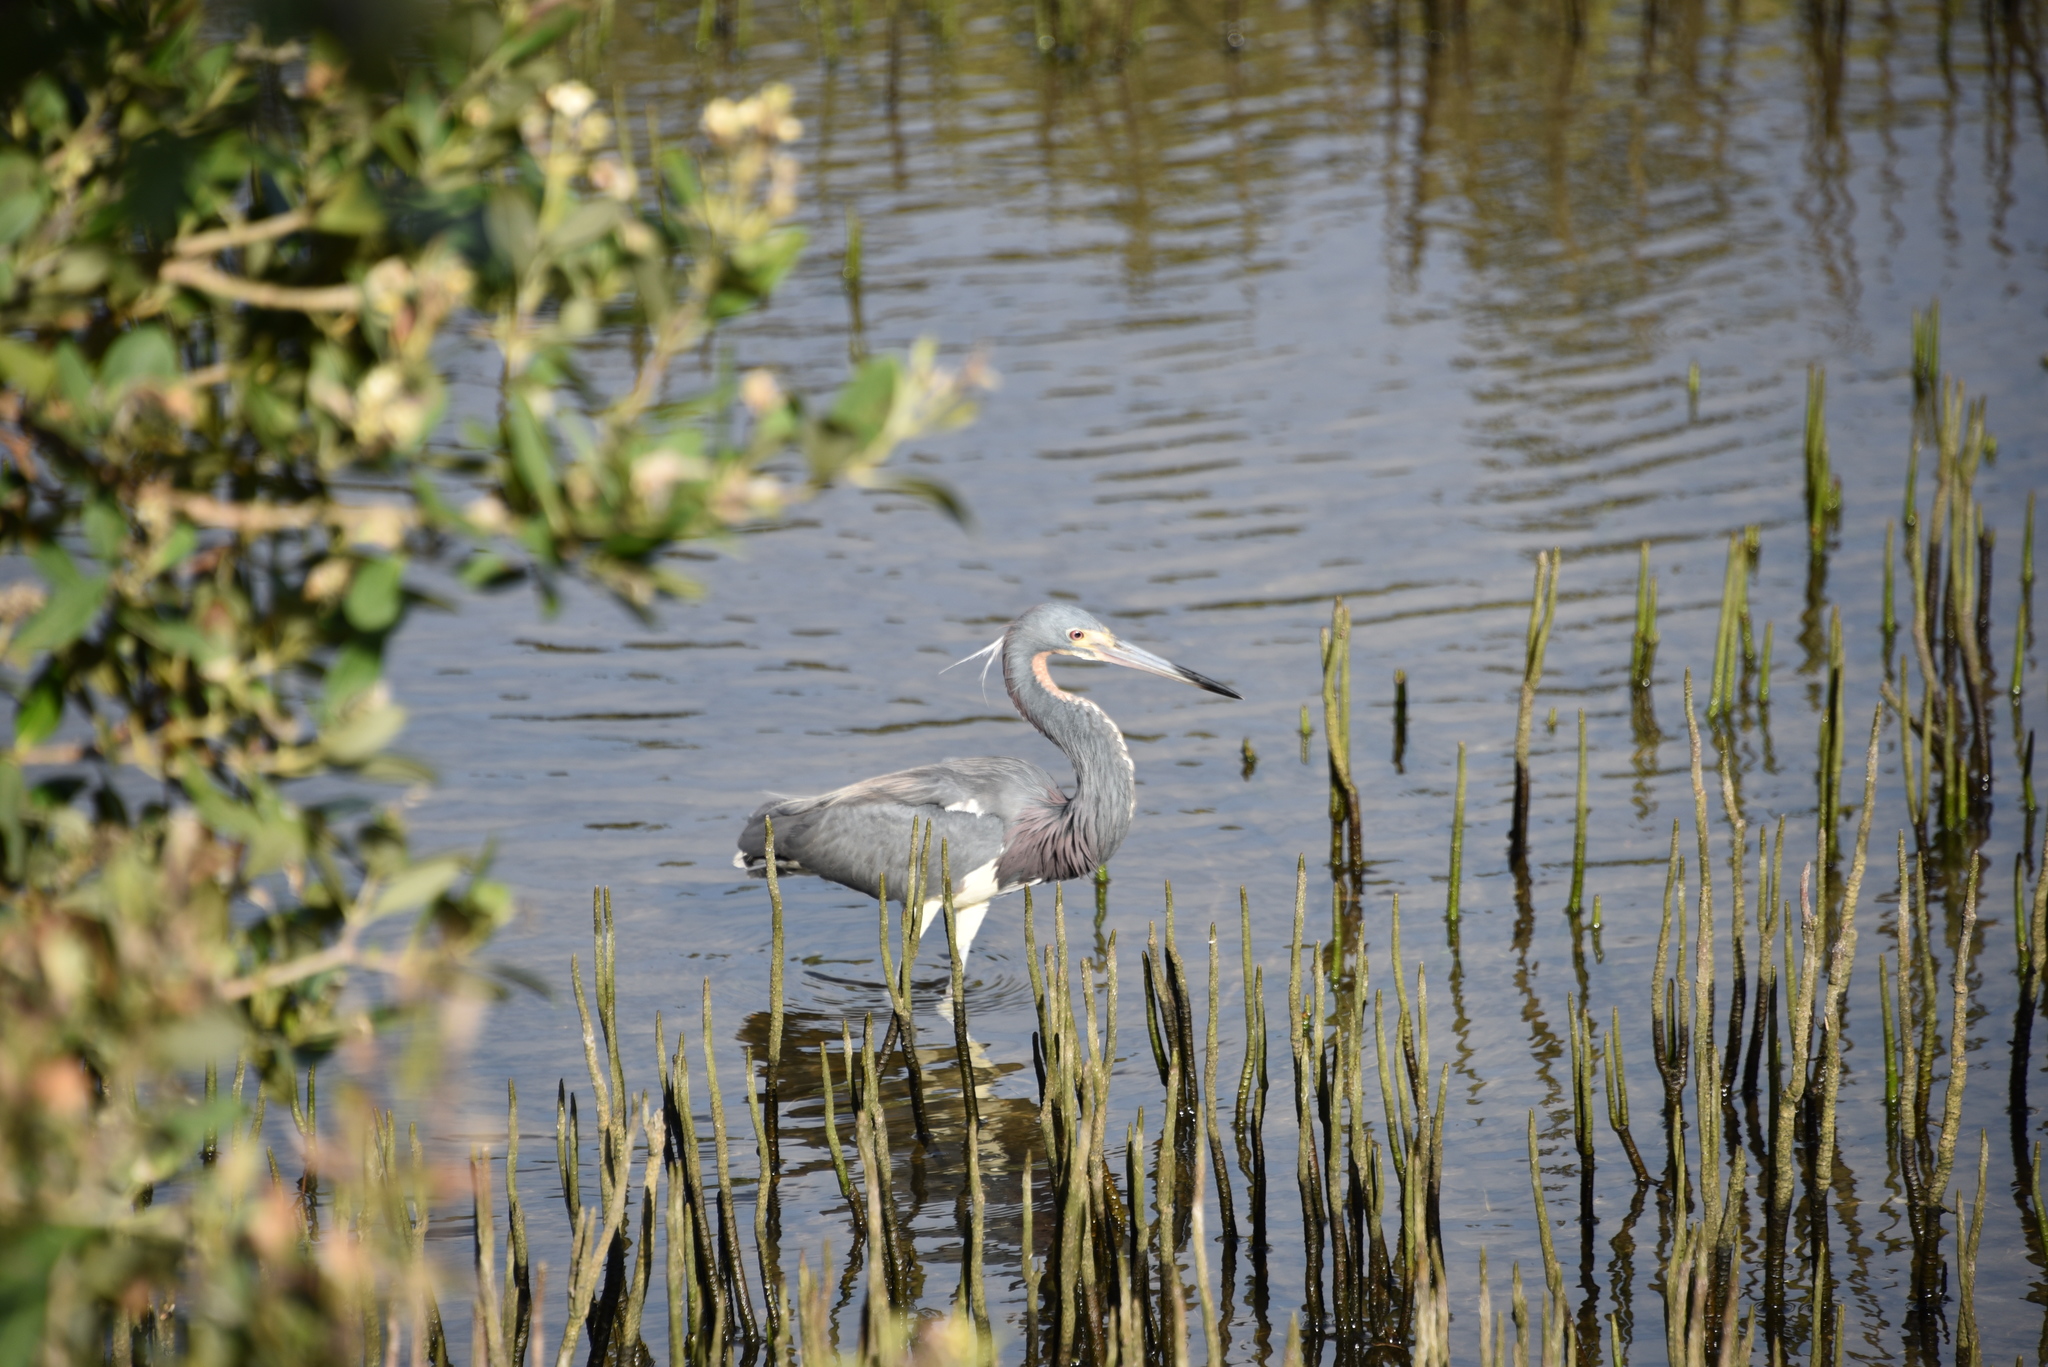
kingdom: Animalia
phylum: Chordata
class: Aves
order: Pelecaniformes
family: Ardeidae
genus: Egretta
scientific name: Egretta tricolor
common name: Tricolored heron
